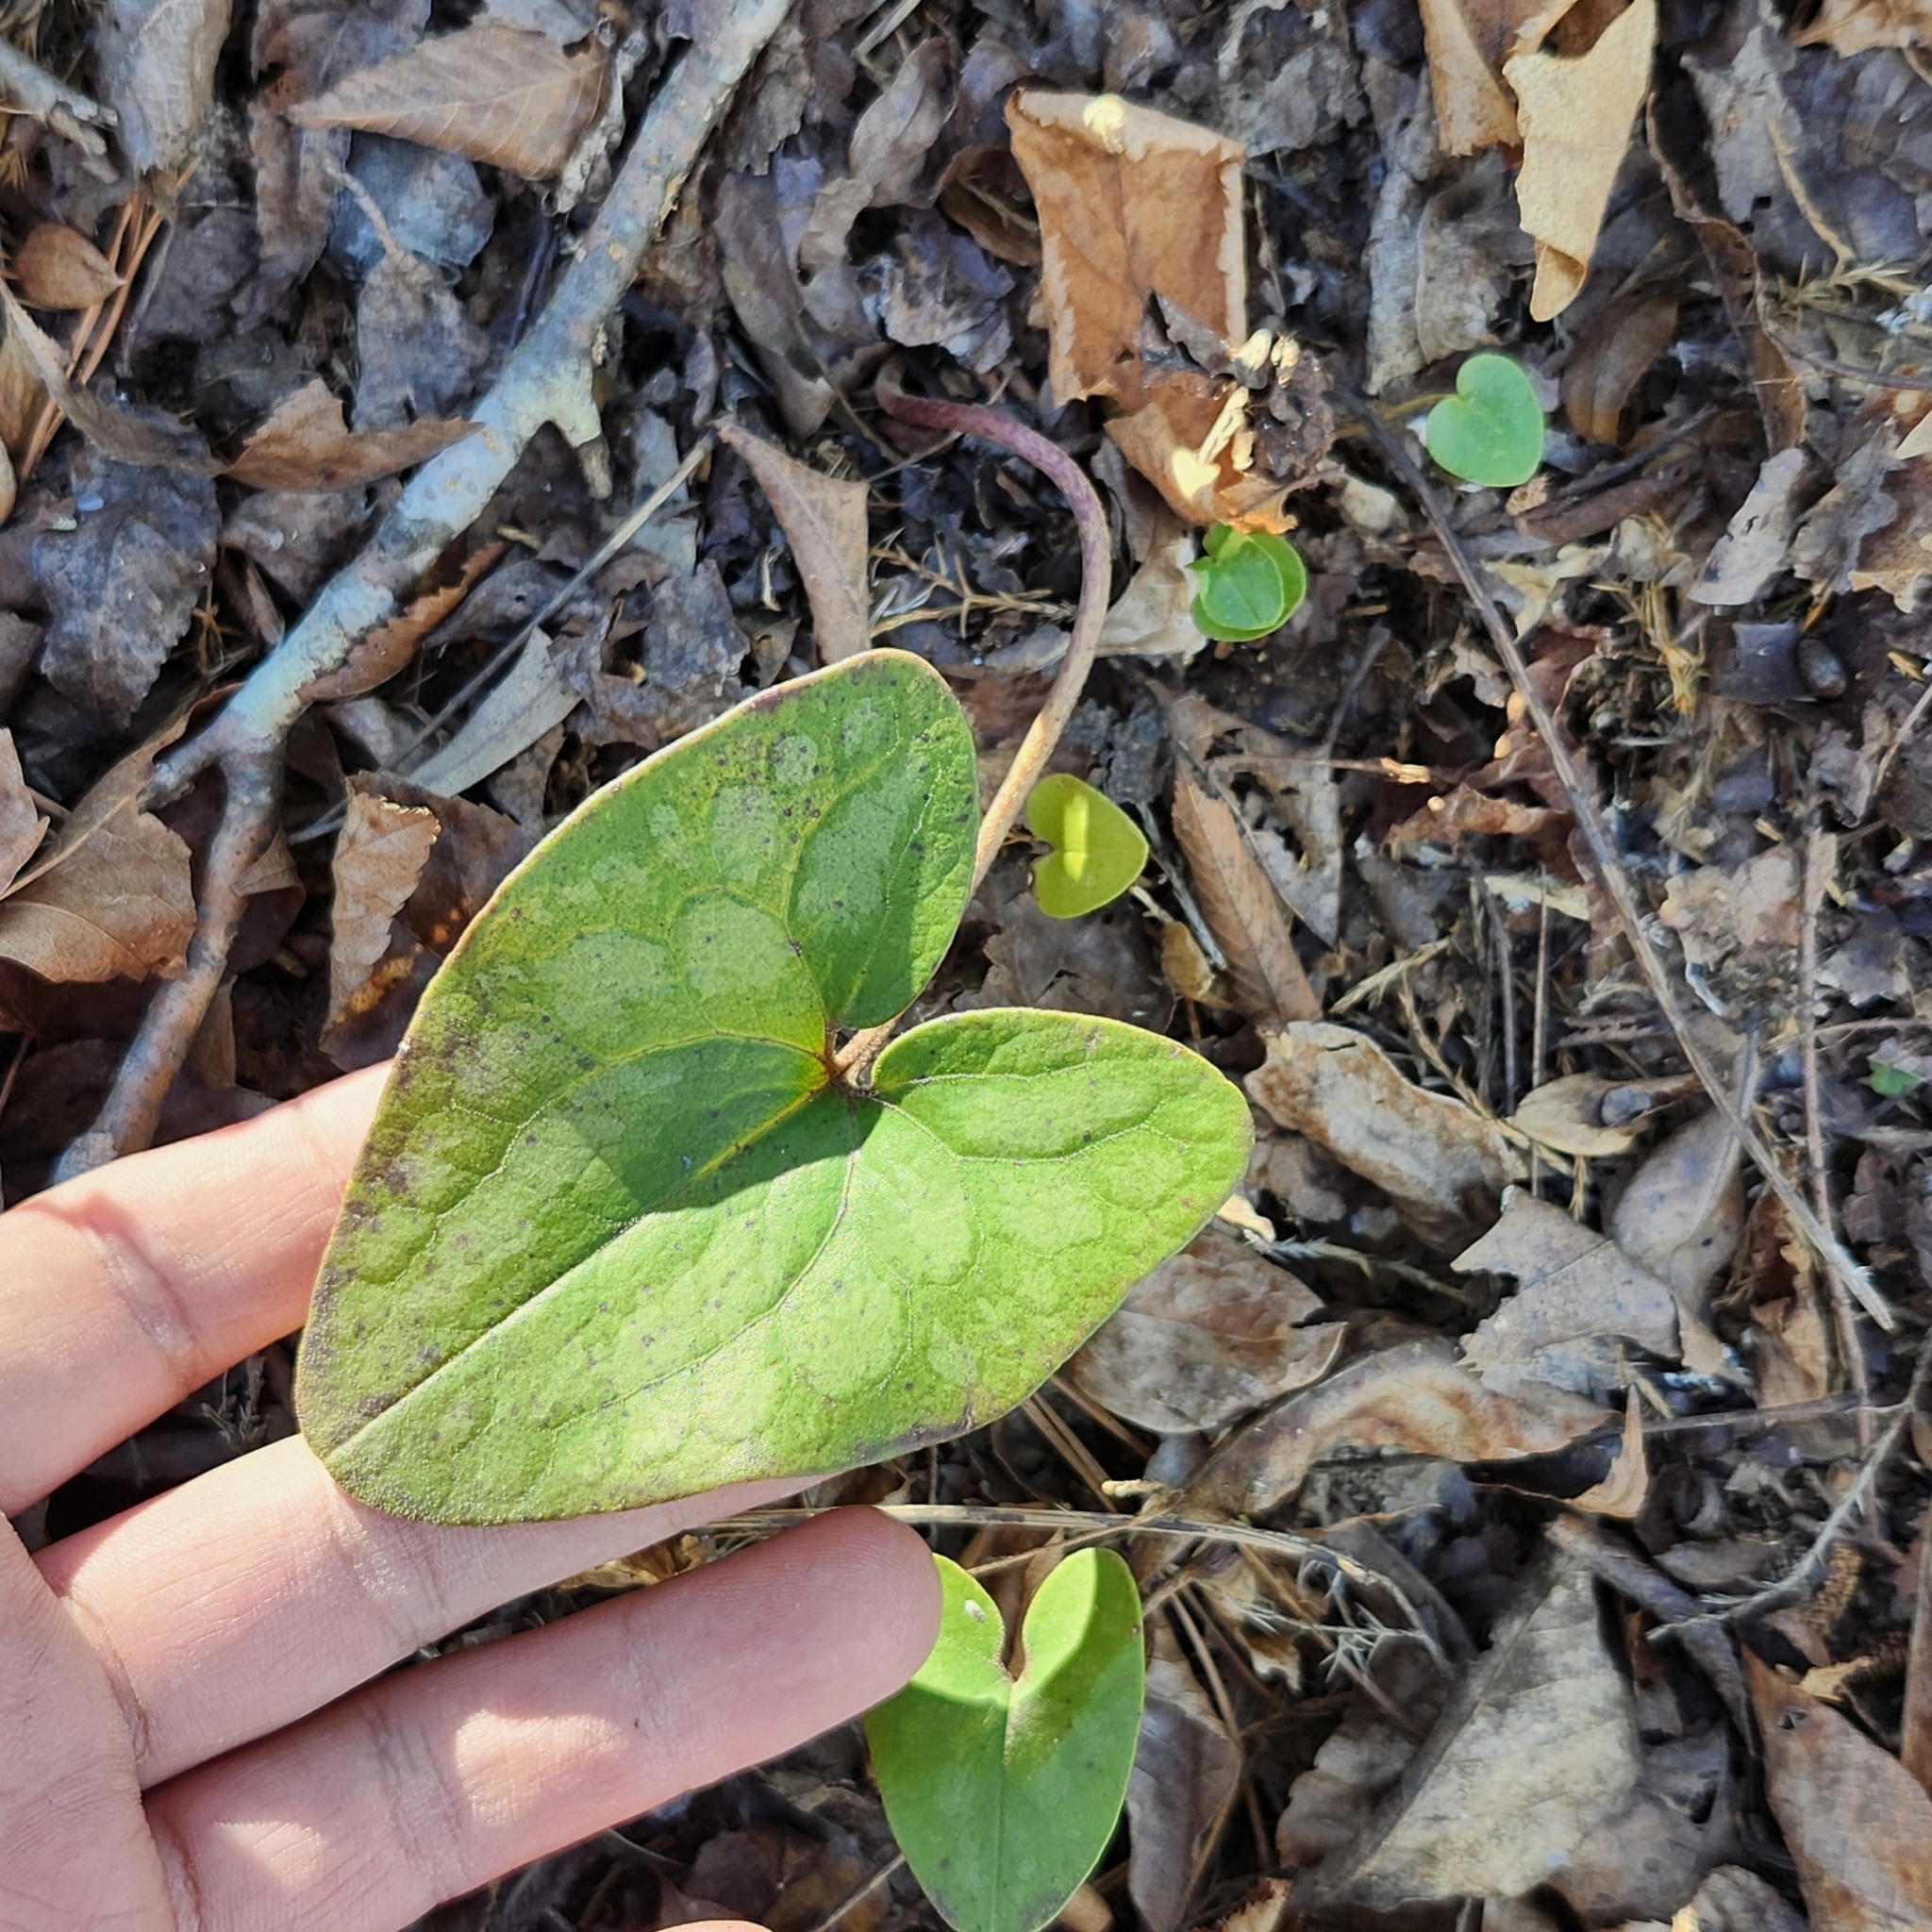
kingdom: Plantae
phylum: Tracheophyta
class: Magnoliopsida
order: Piperales
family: Aristolochiaceae
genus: Hexastylis
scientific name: Hexastylis arifolia
